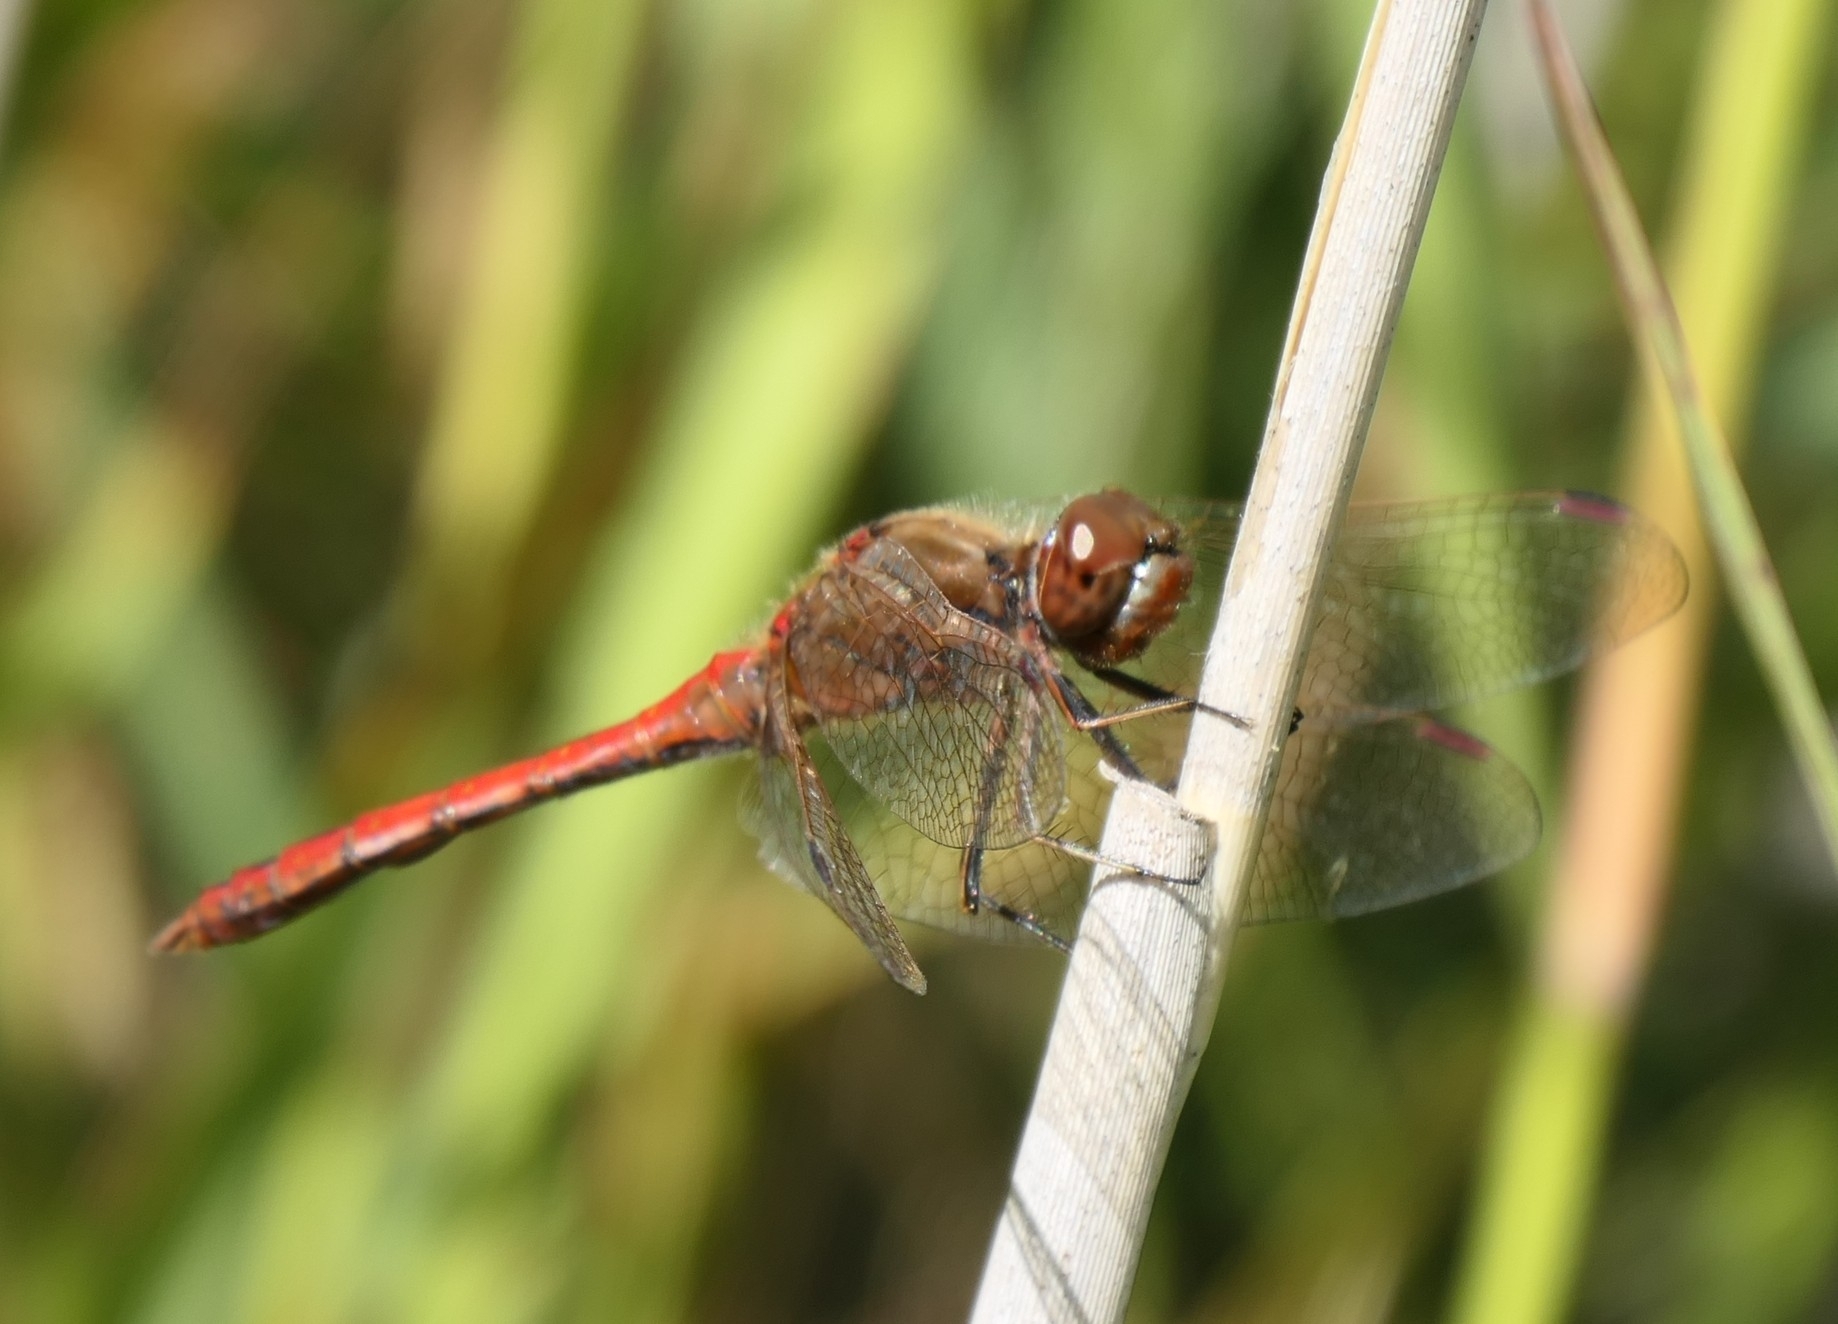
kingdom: Animalia
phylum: Arthropoda
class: Insecta
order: Odonata
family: Libellulidae
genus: Sympetrum
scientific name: Sympetrum vulgatum
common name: Vagrant darter
